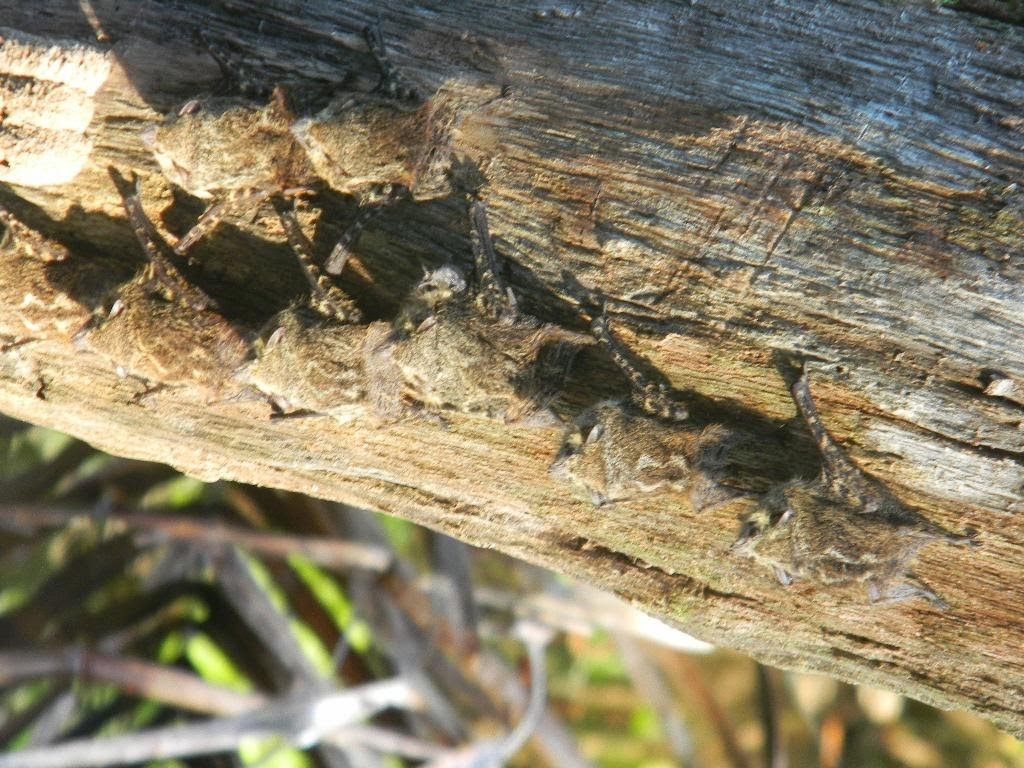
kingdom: Animalia
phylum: Chordata
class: Mammalia
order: Chiroptera
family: Emballonuridae
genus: Rhynchonycteris
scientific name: Rhynchonycteris naso
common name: Proboscis bat
